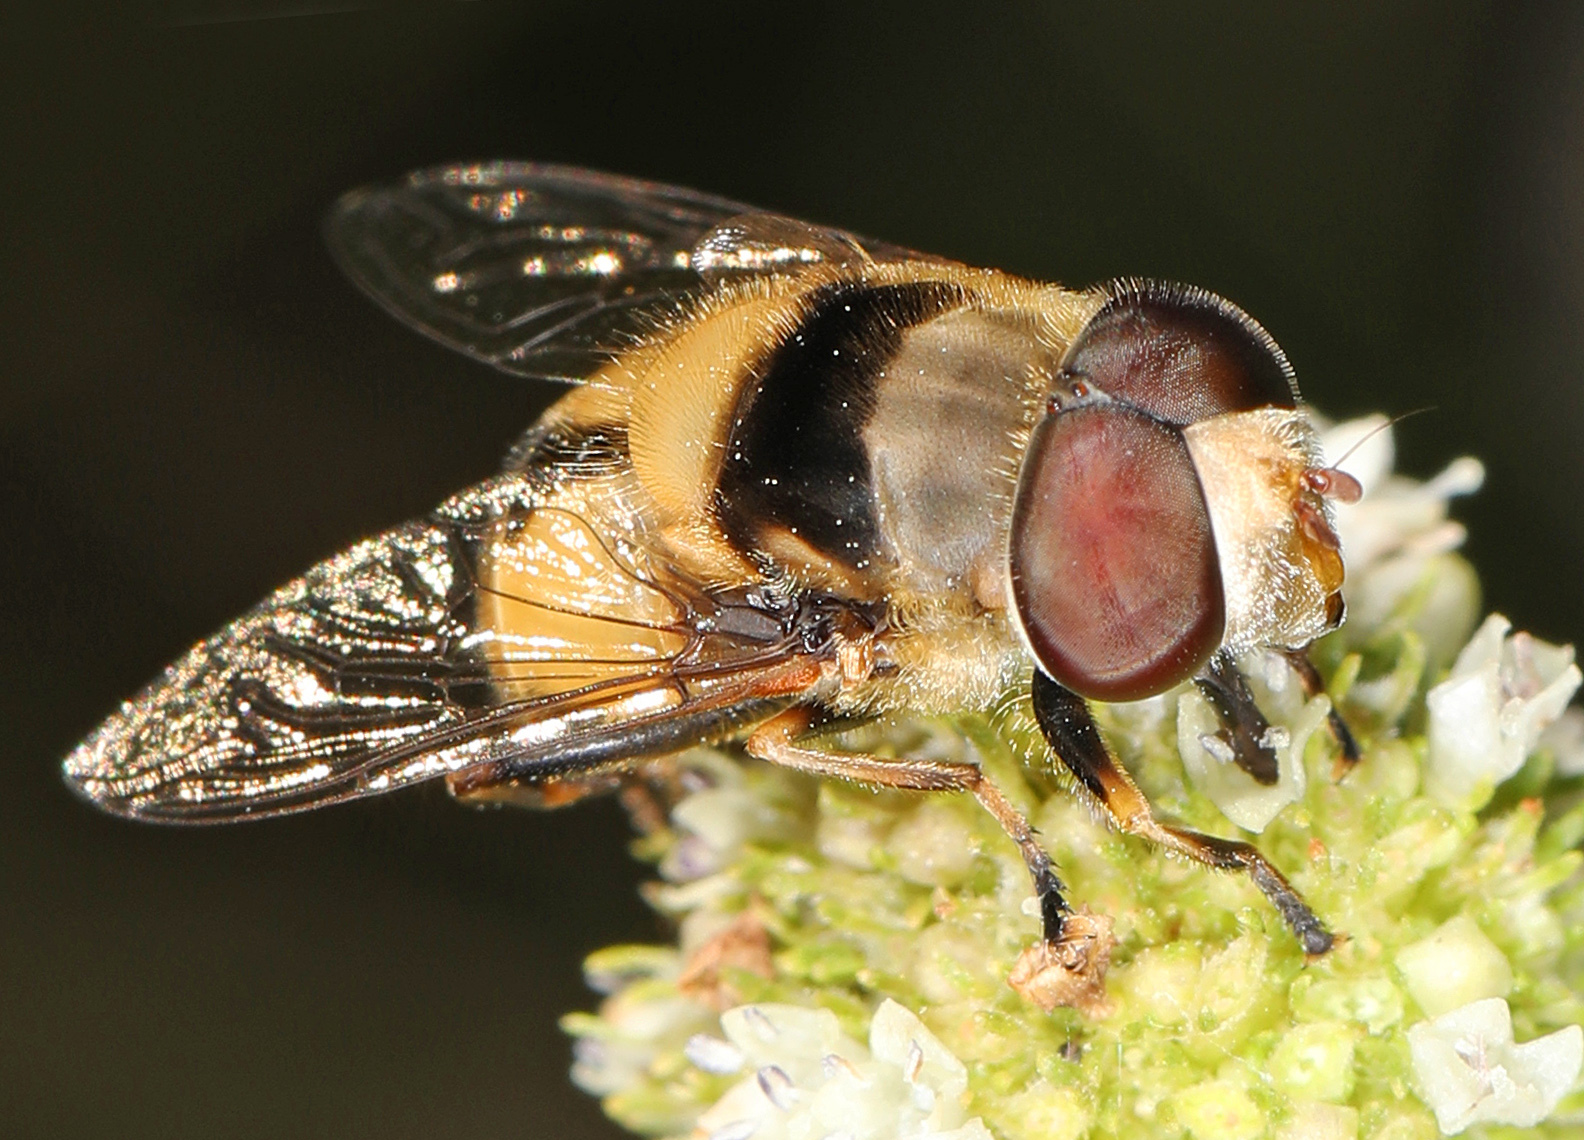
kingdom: Animalia
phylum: Arthropoda
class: Insecta
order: Diptera
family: Syrphidae
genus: Palpada
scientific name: Palpada pusilla
